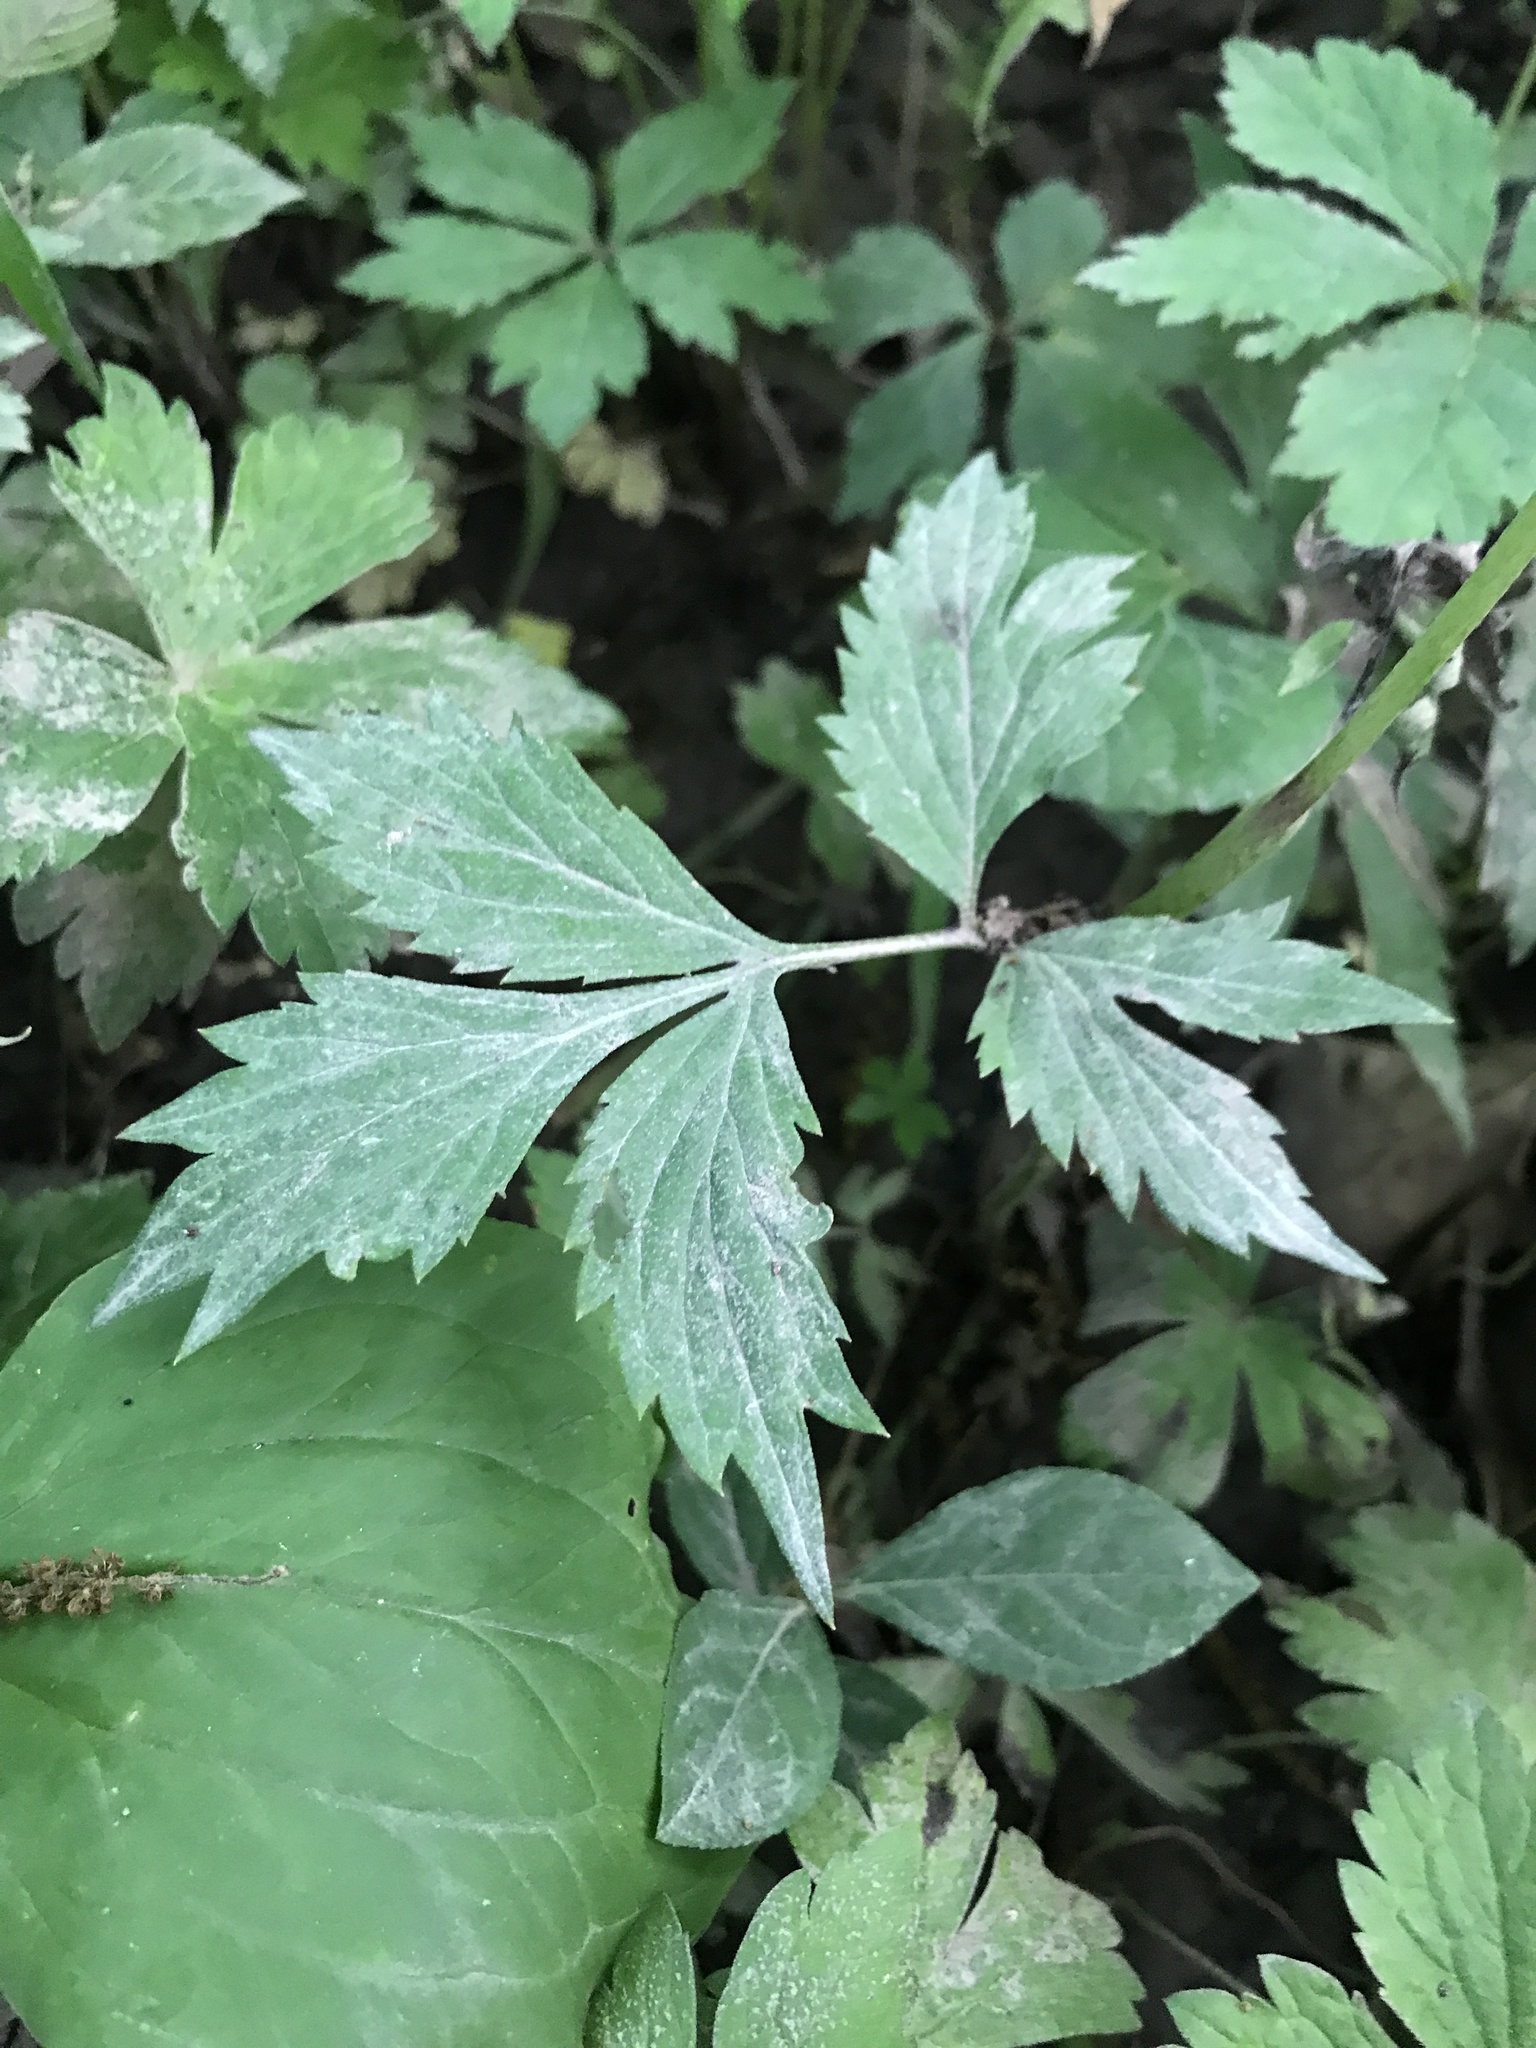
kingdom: Plantae
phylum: Tracheophyta
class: Magnoliopsida
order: Boraginales
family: Hydrophyllaceae
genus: Hydrophyllum
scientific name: Hydrophyllum virginianum
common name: Virginia waterleaf
